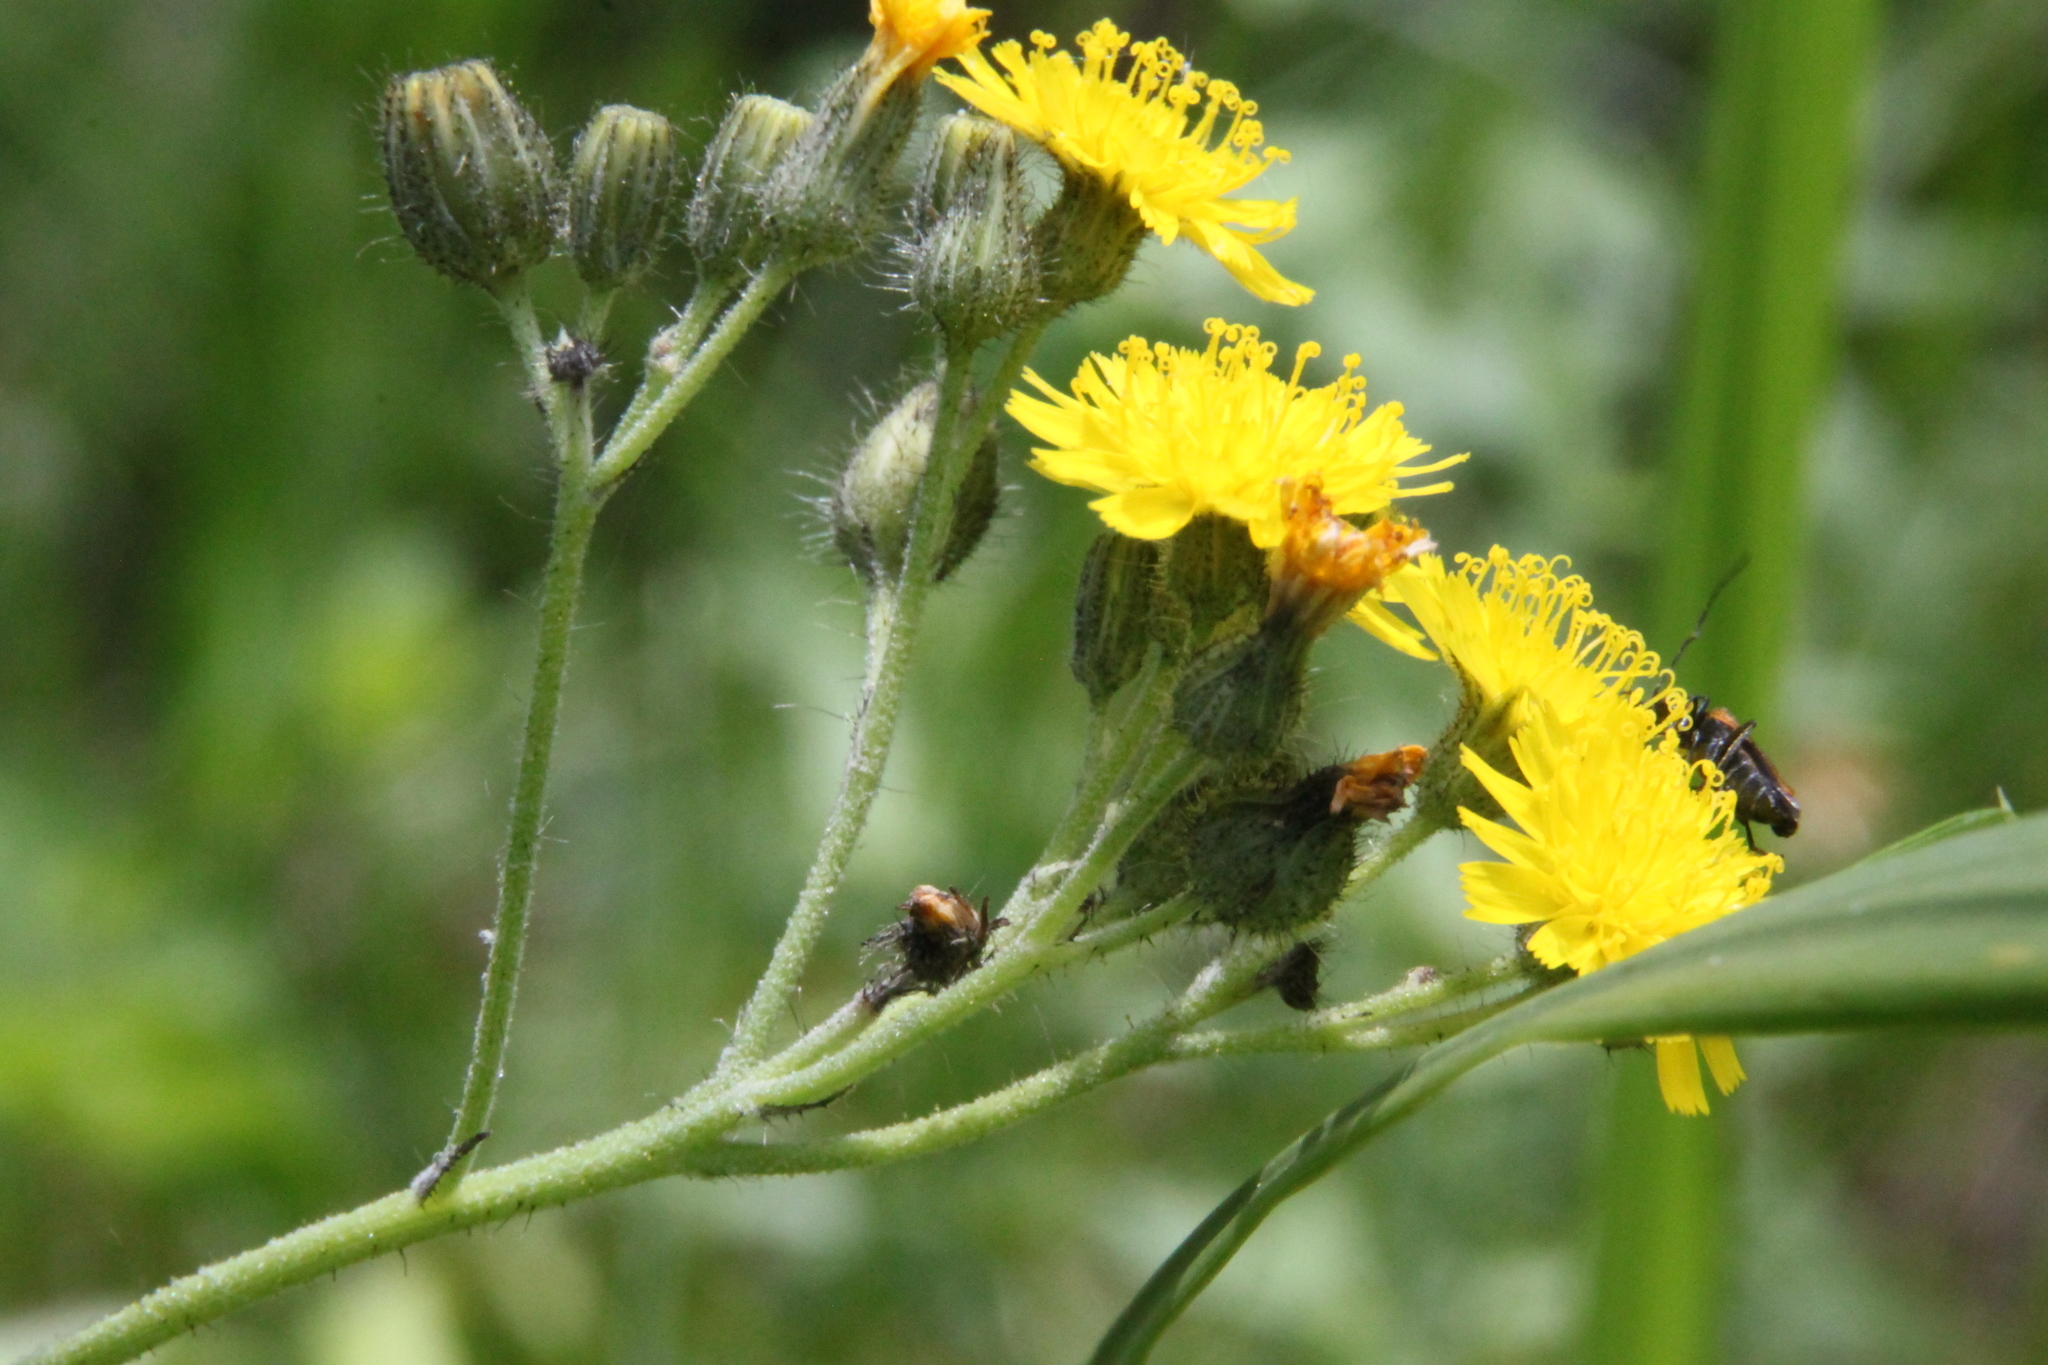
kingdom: Plantae
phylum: Tracheophyta
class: Magnoliopsida
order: Asterales
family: Asteraceae
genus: Pilosella
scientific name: Pilosella
